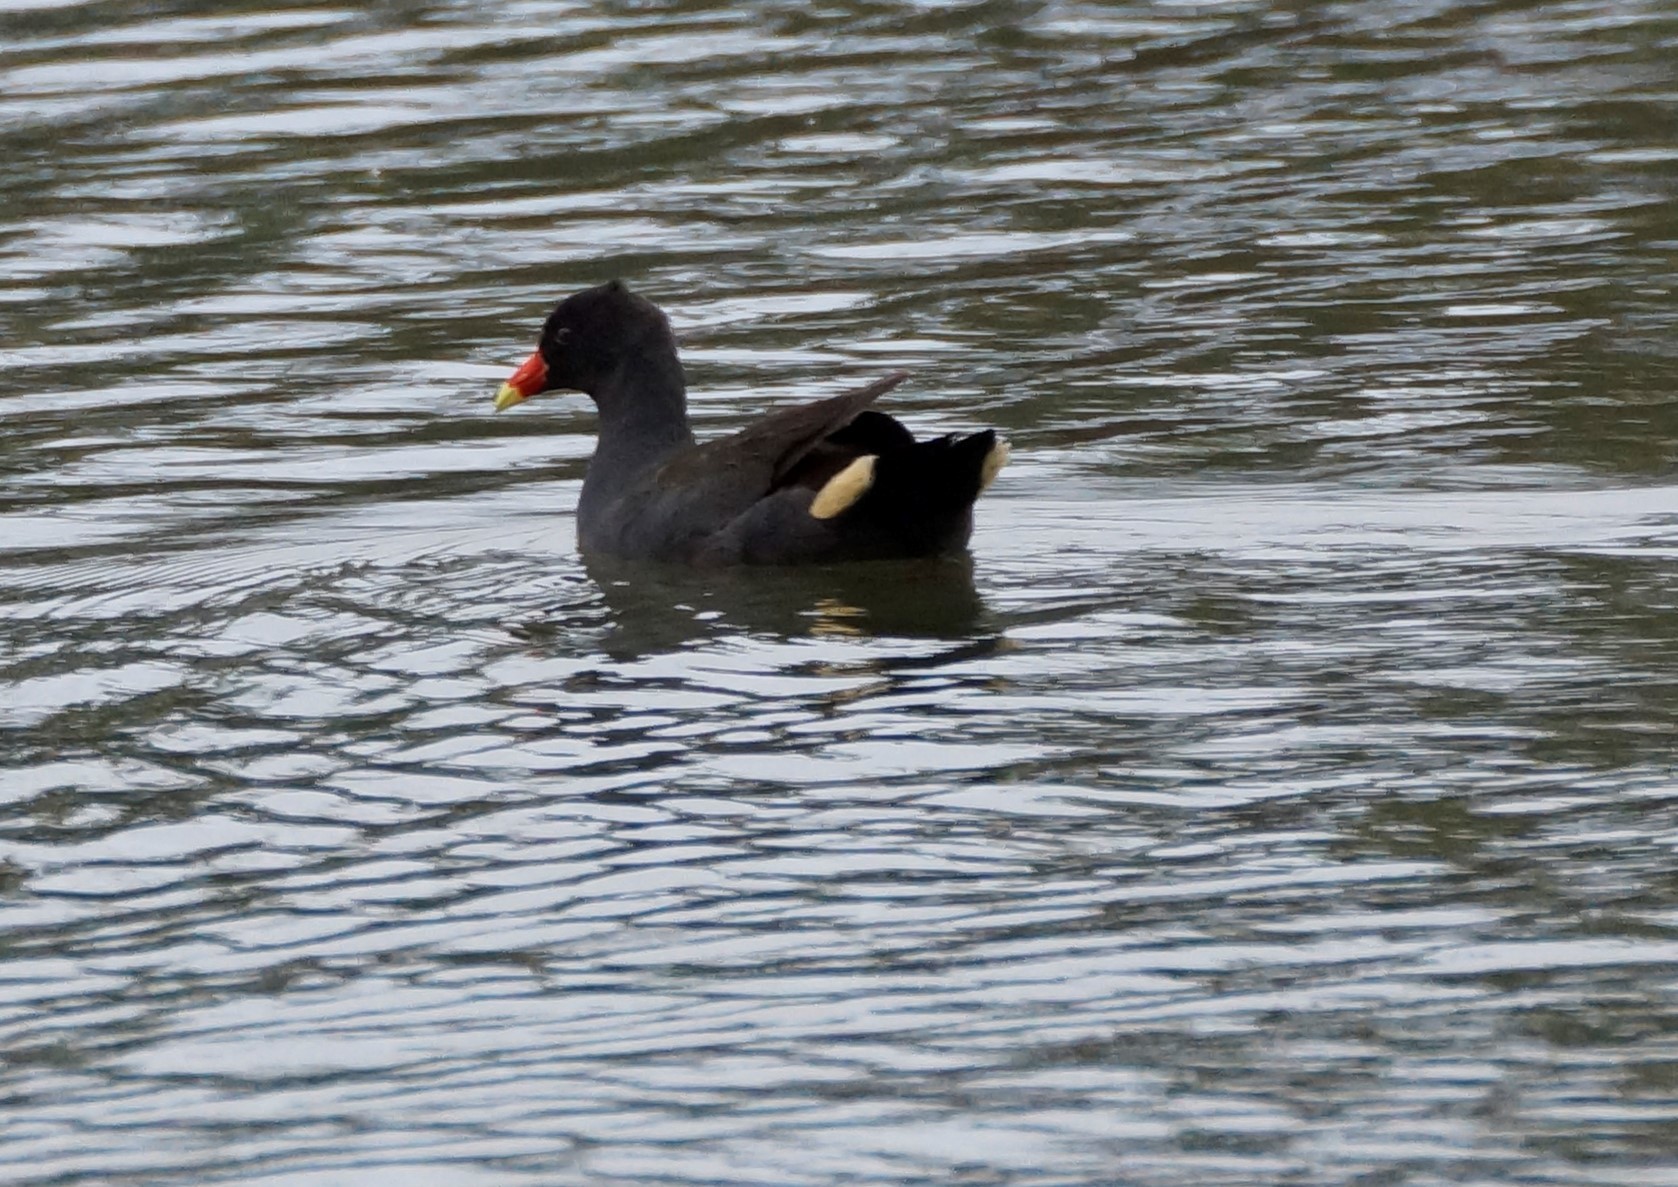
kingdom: Animalia
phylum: Chordata
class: Aves
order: Gruiformes
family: Rallidae
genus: Gallinula
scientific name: Gallinula tenebrosa
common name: Dusky moorhen
